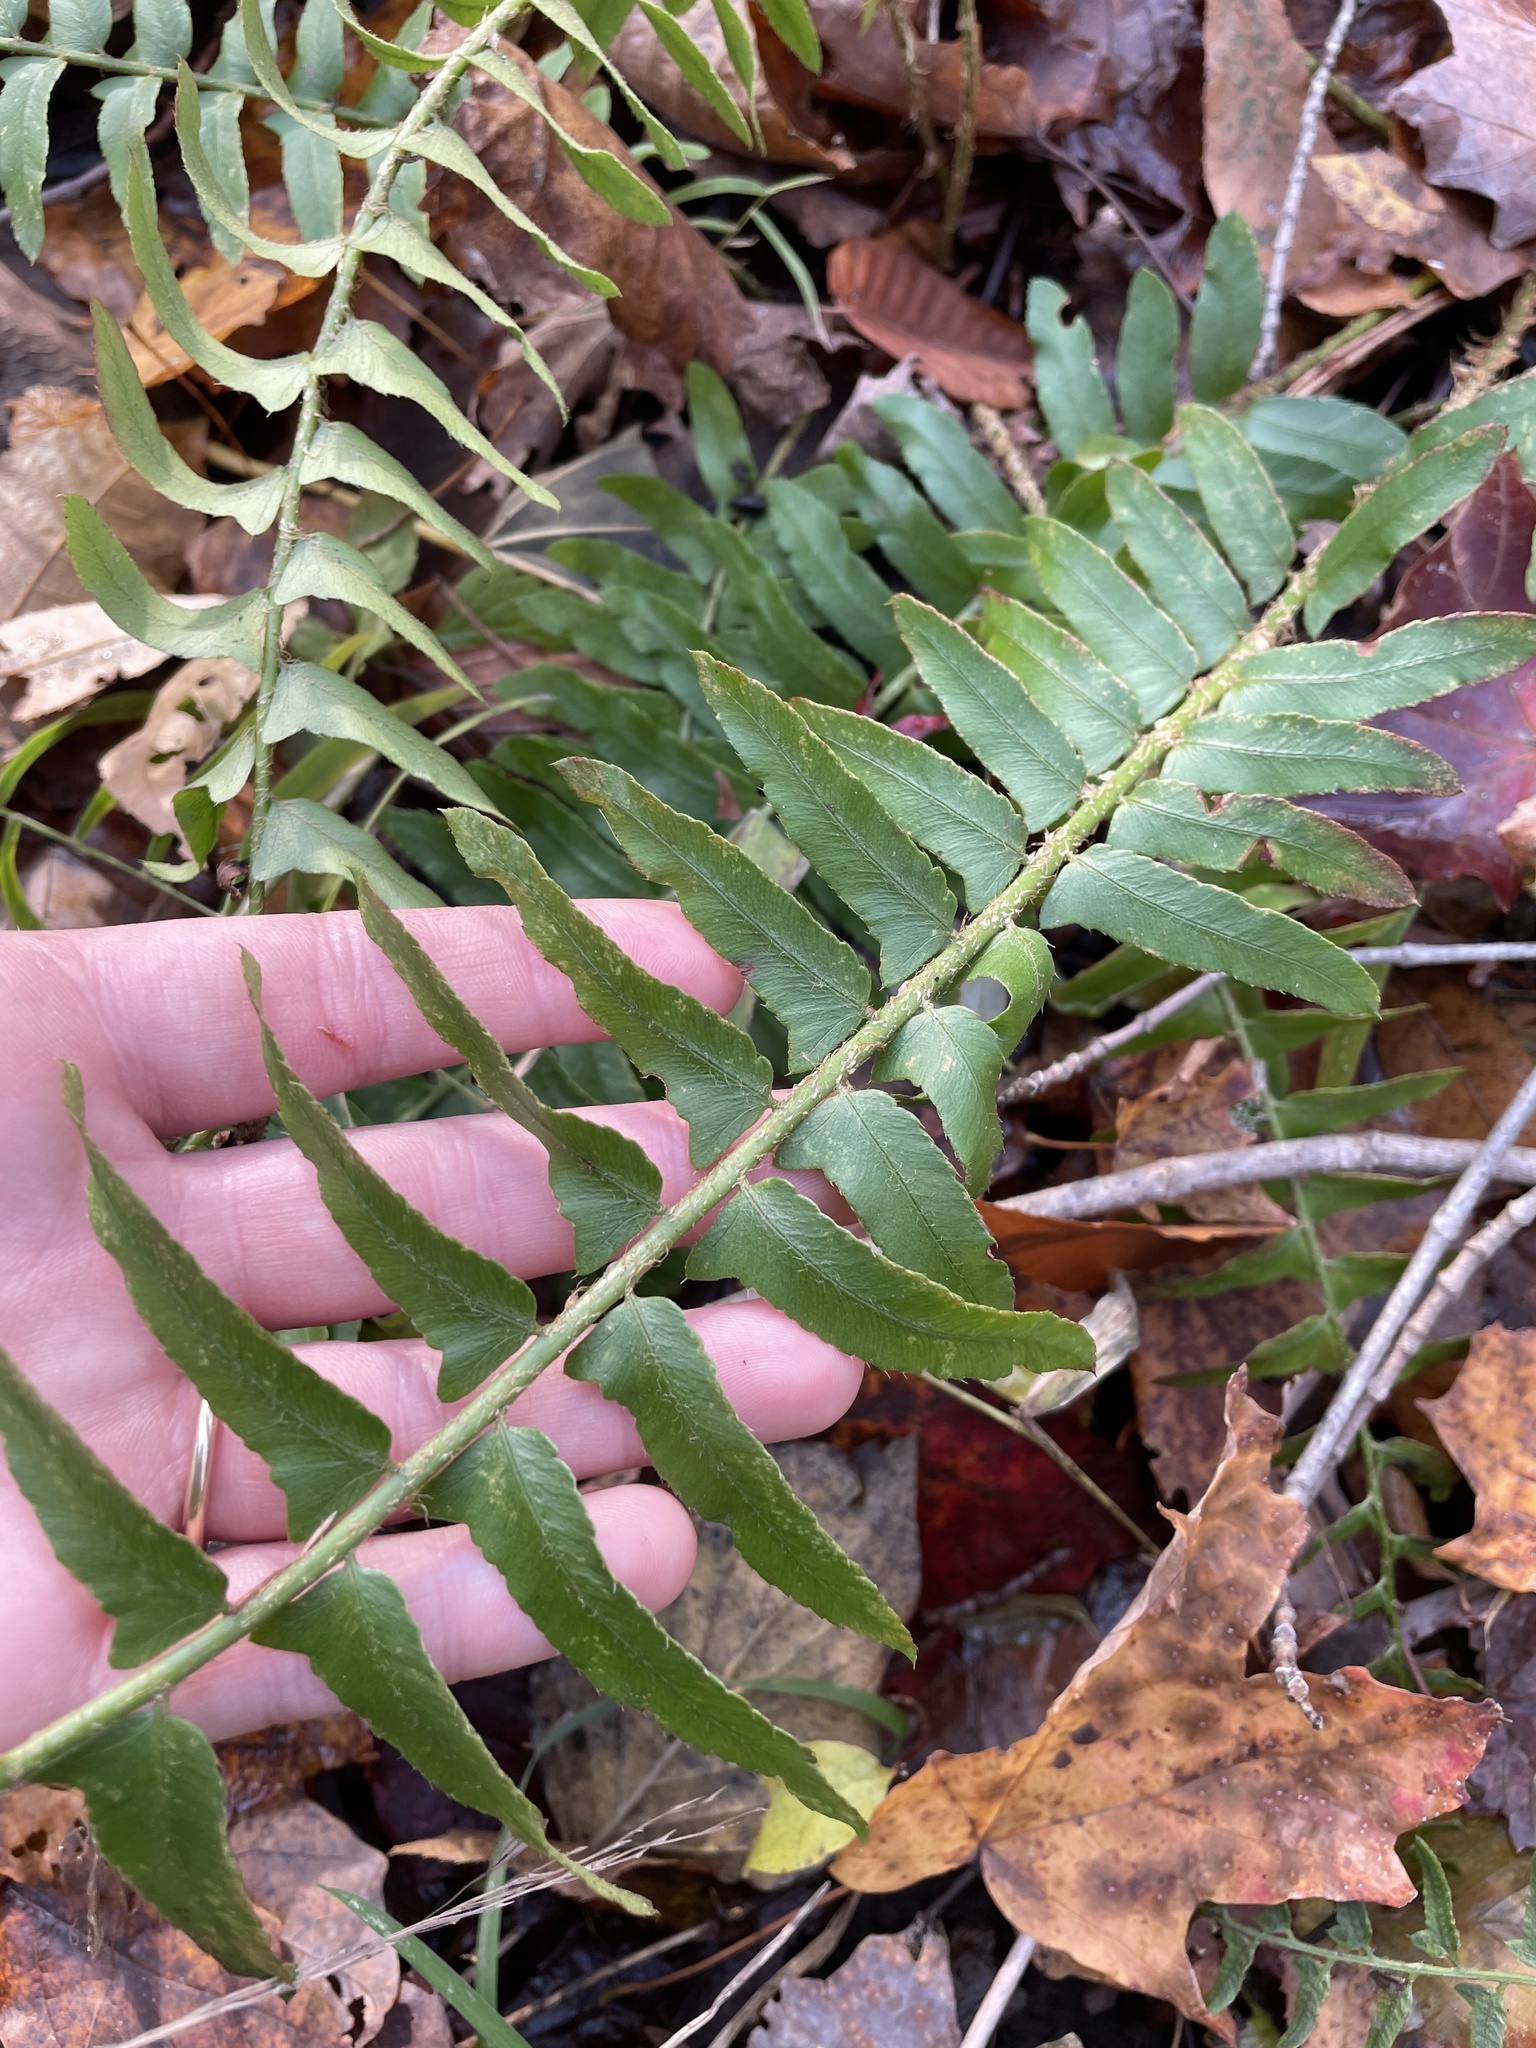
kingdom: Plantae
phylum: Tracheophyta
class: Polypodiopsida
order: Polypodiales
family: Dryopteridaceae
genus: Polystichum
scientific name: Polystichum acrostichoides
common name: Christmas fern
